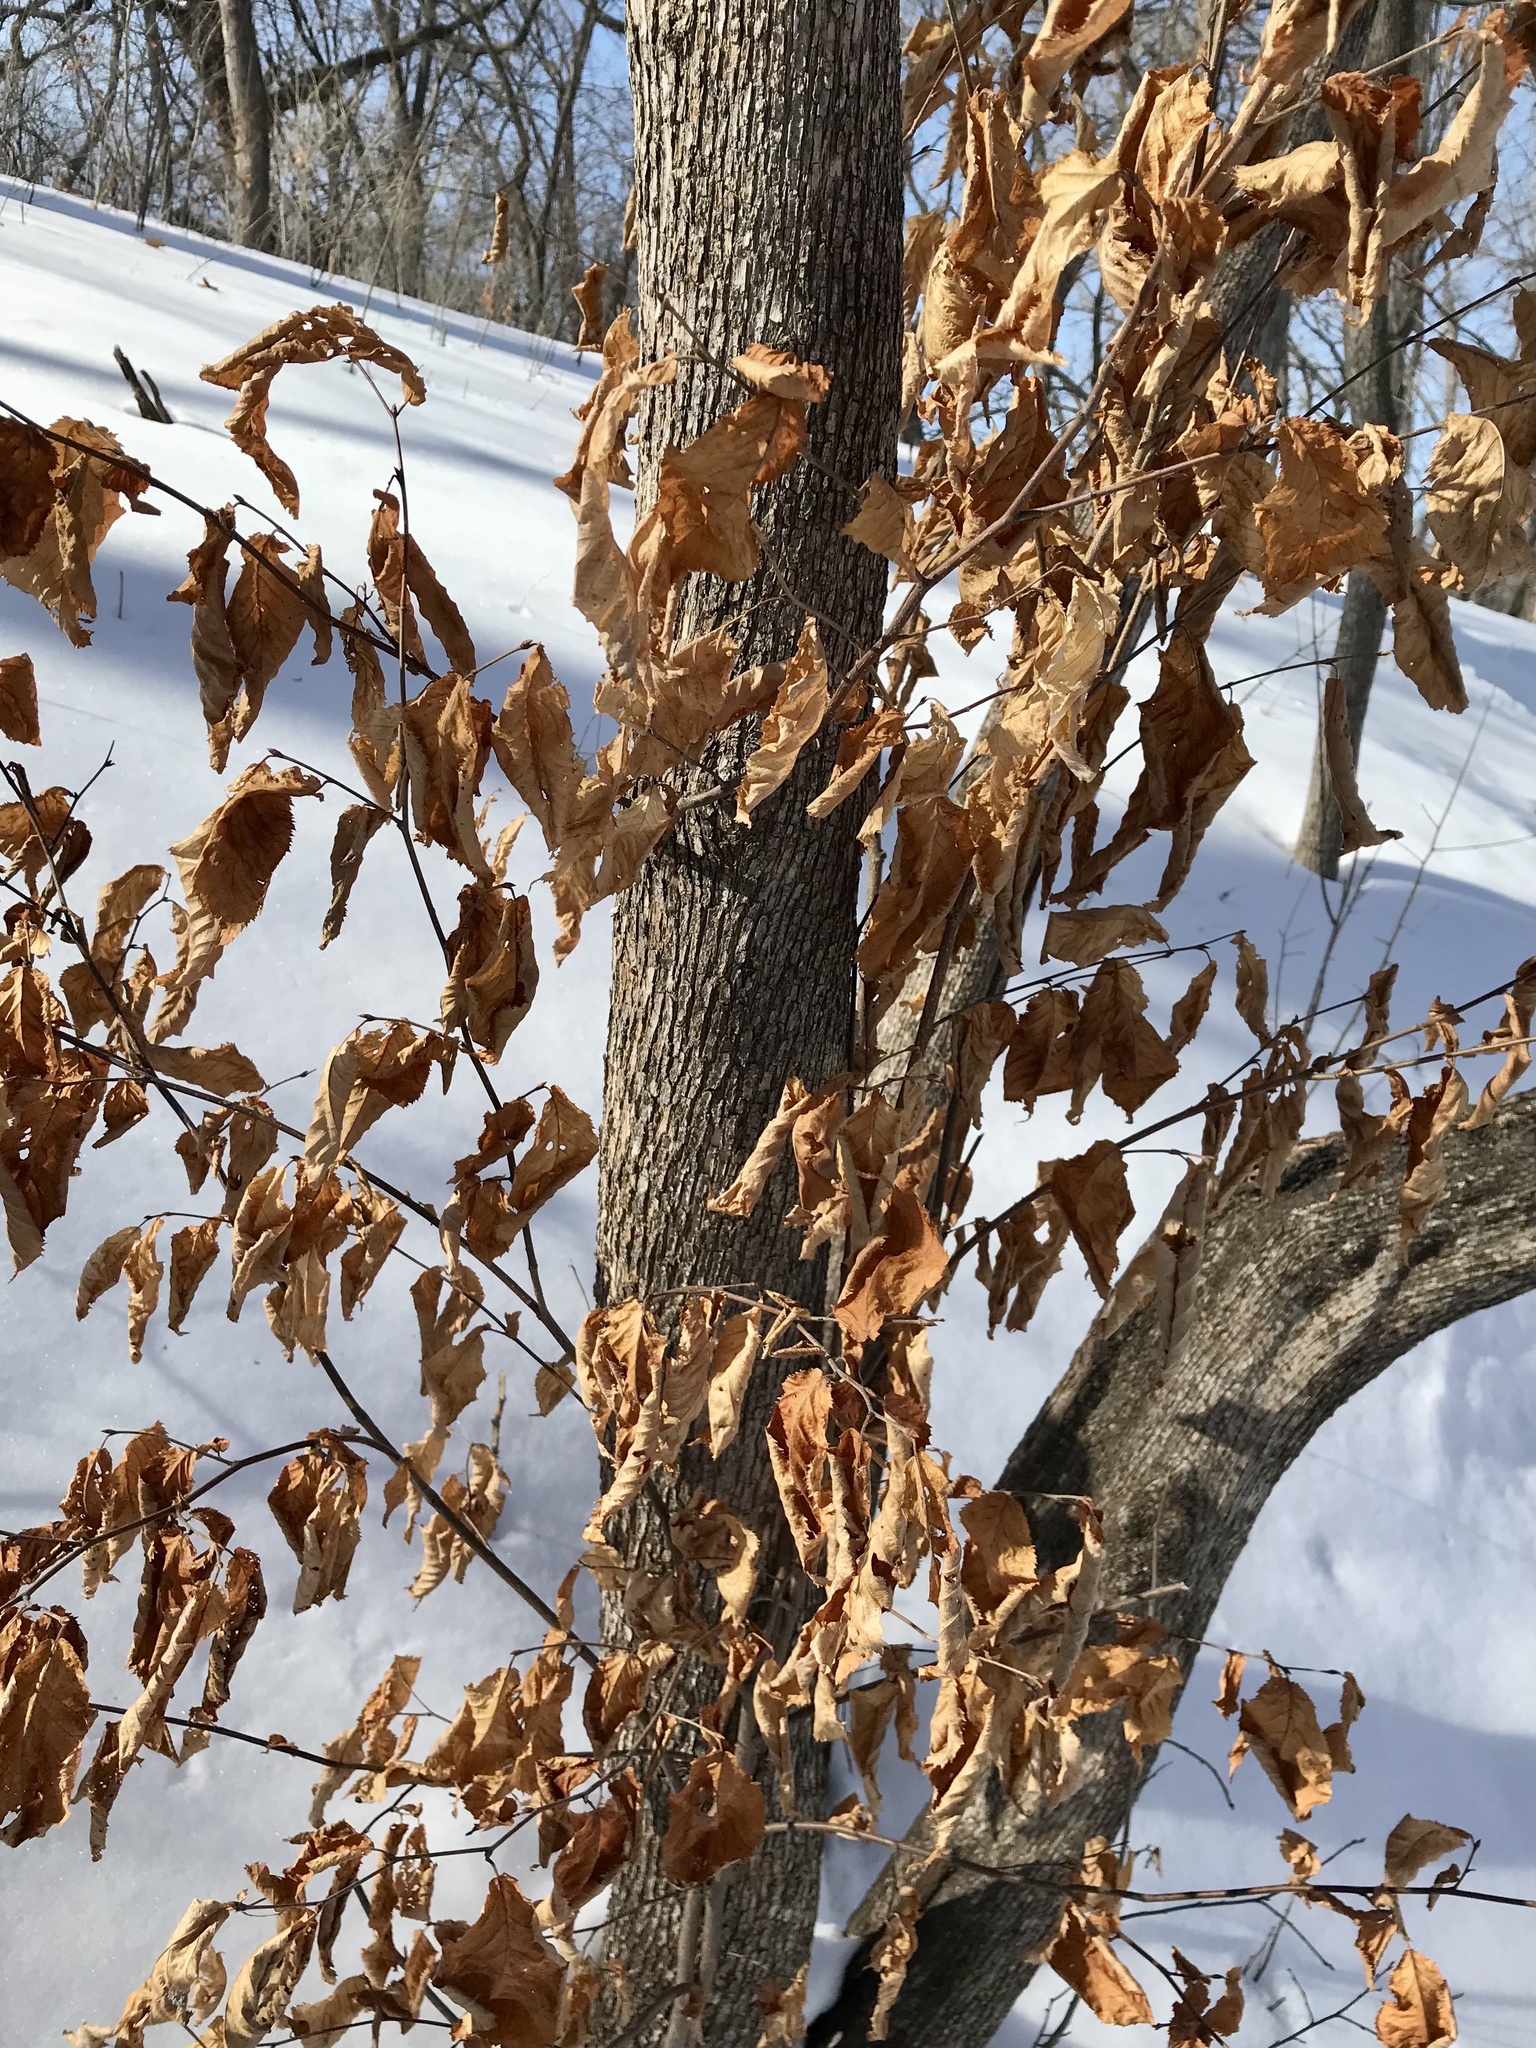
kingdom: Plantae
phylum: Tracheophyta
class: Magnoliopsida
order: Fagales
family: Betulaceae
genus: Ostrya
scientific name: Ostrya virginiana
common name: Ironwood
